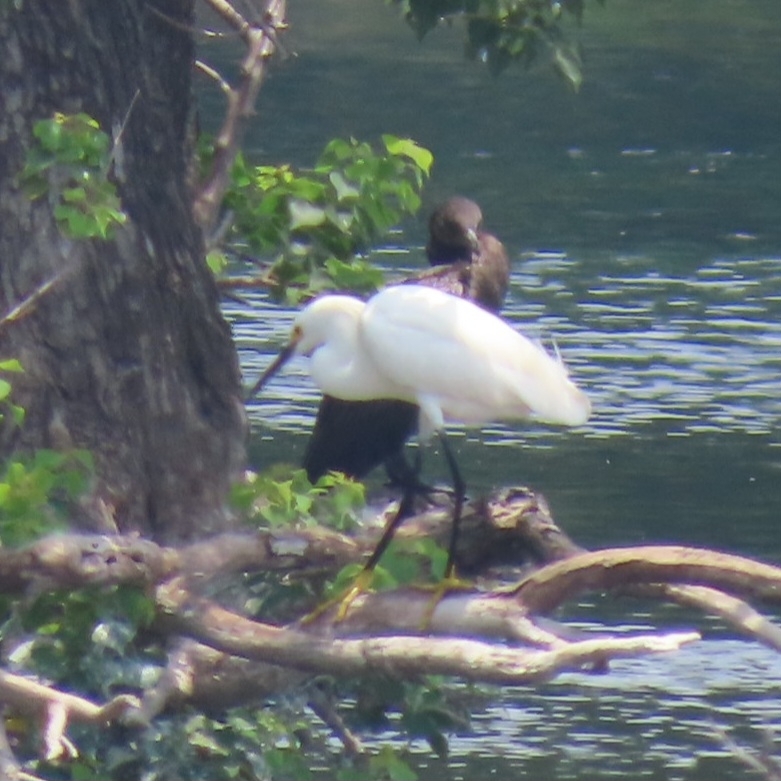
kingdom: Animalia
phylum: Chordata
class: Aves
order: Pelecaniformes
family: Ardeidae
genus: Egretta
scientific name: Egretta thula
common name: Snowy egret
